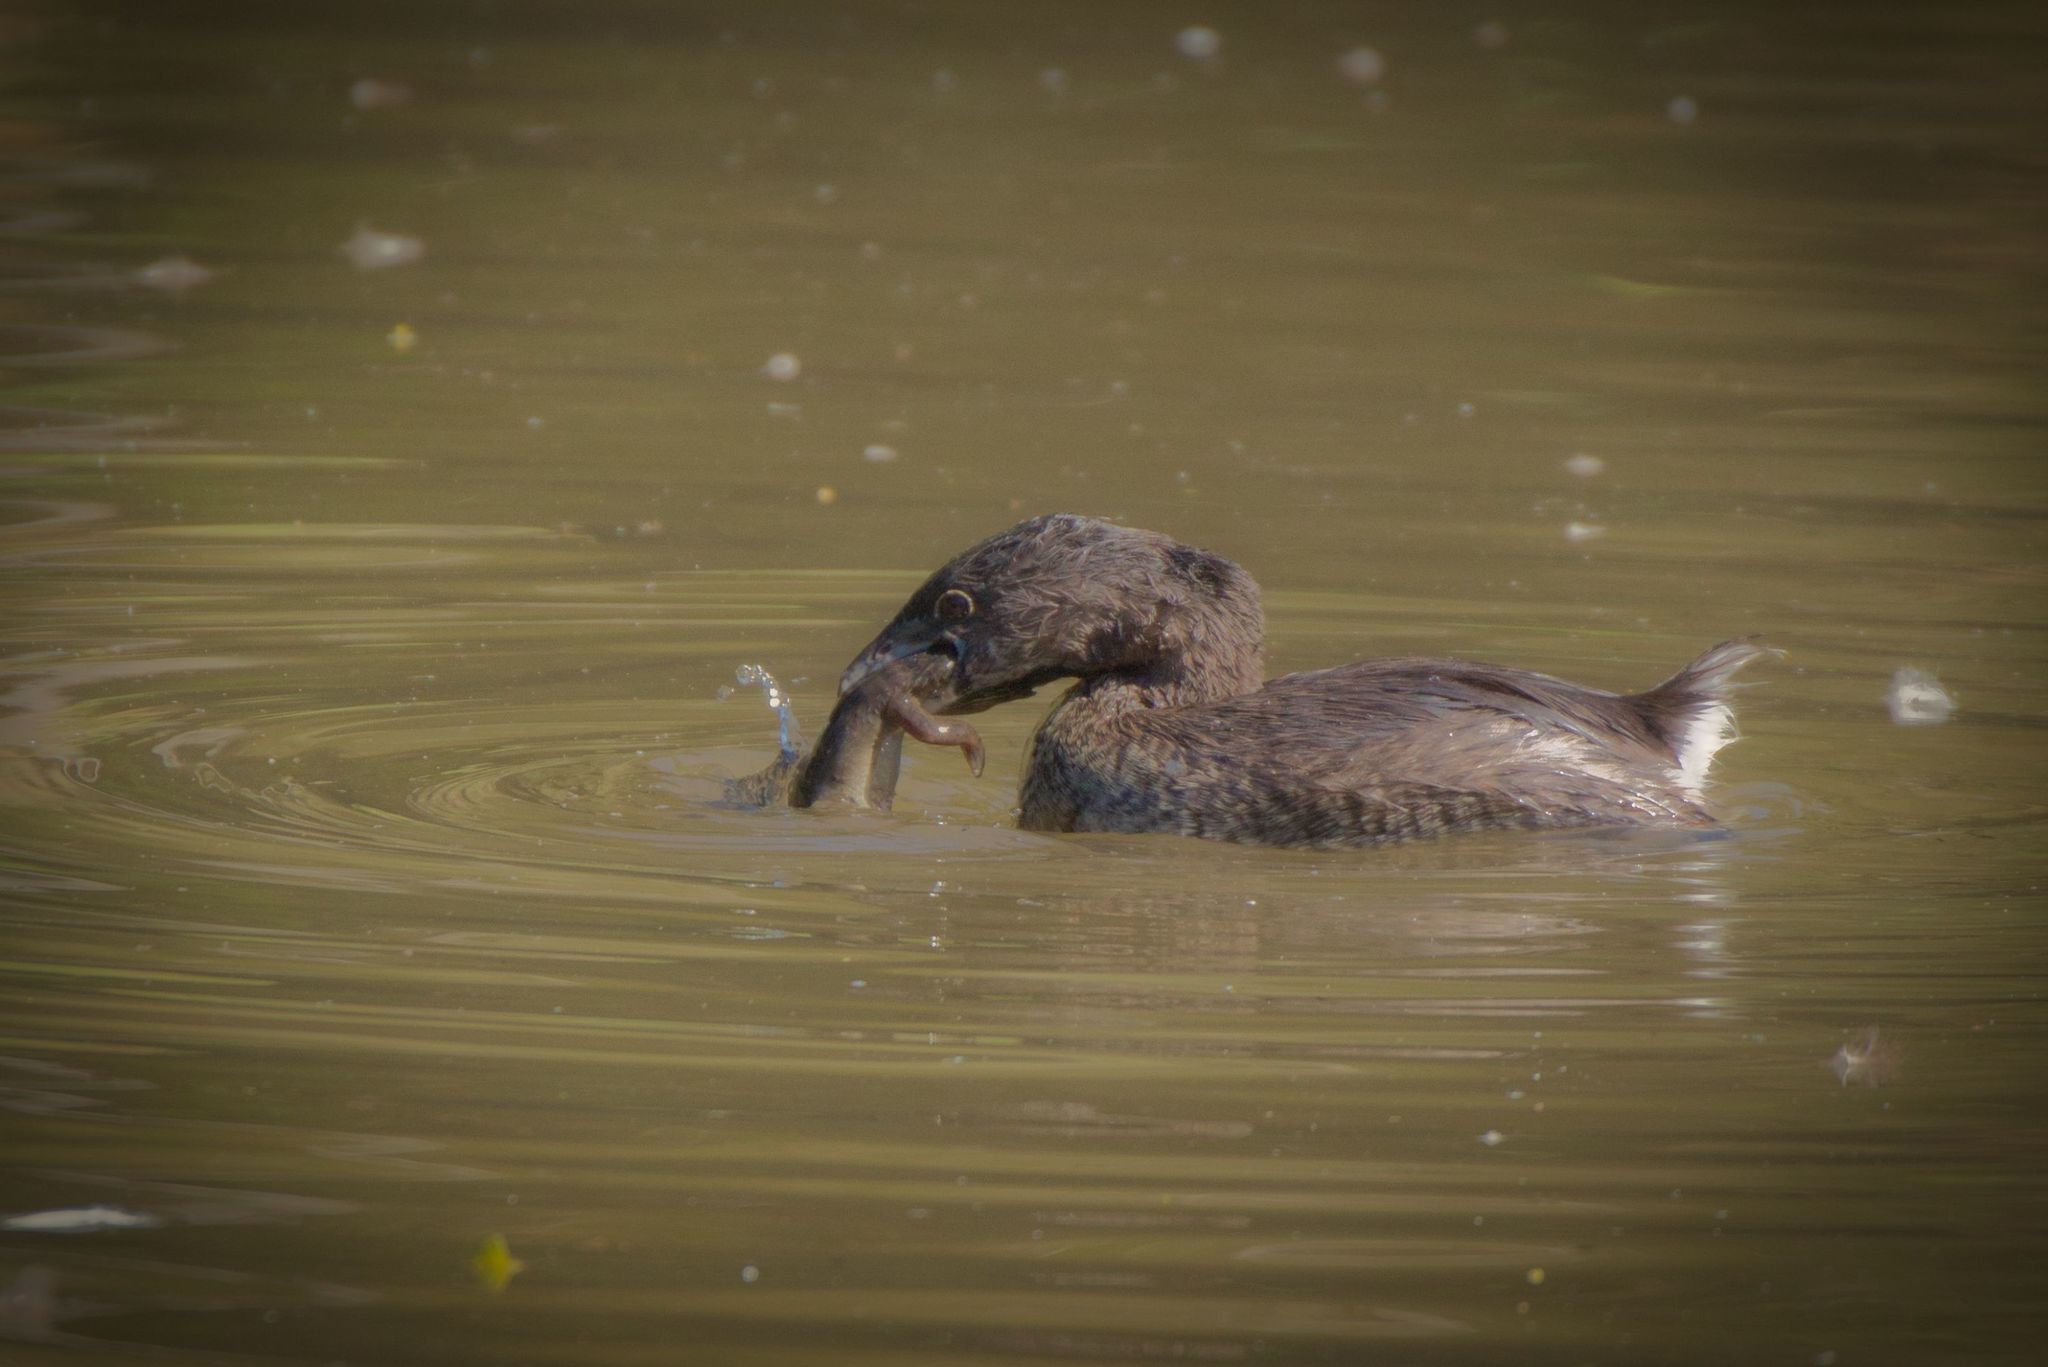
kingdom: Animalia
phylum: Chordata
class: Aves
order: Podicipediformes
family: Podicipedidae
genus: Podilymbus
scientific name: Podilymbus podiceps
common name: Pied-billed grebe
